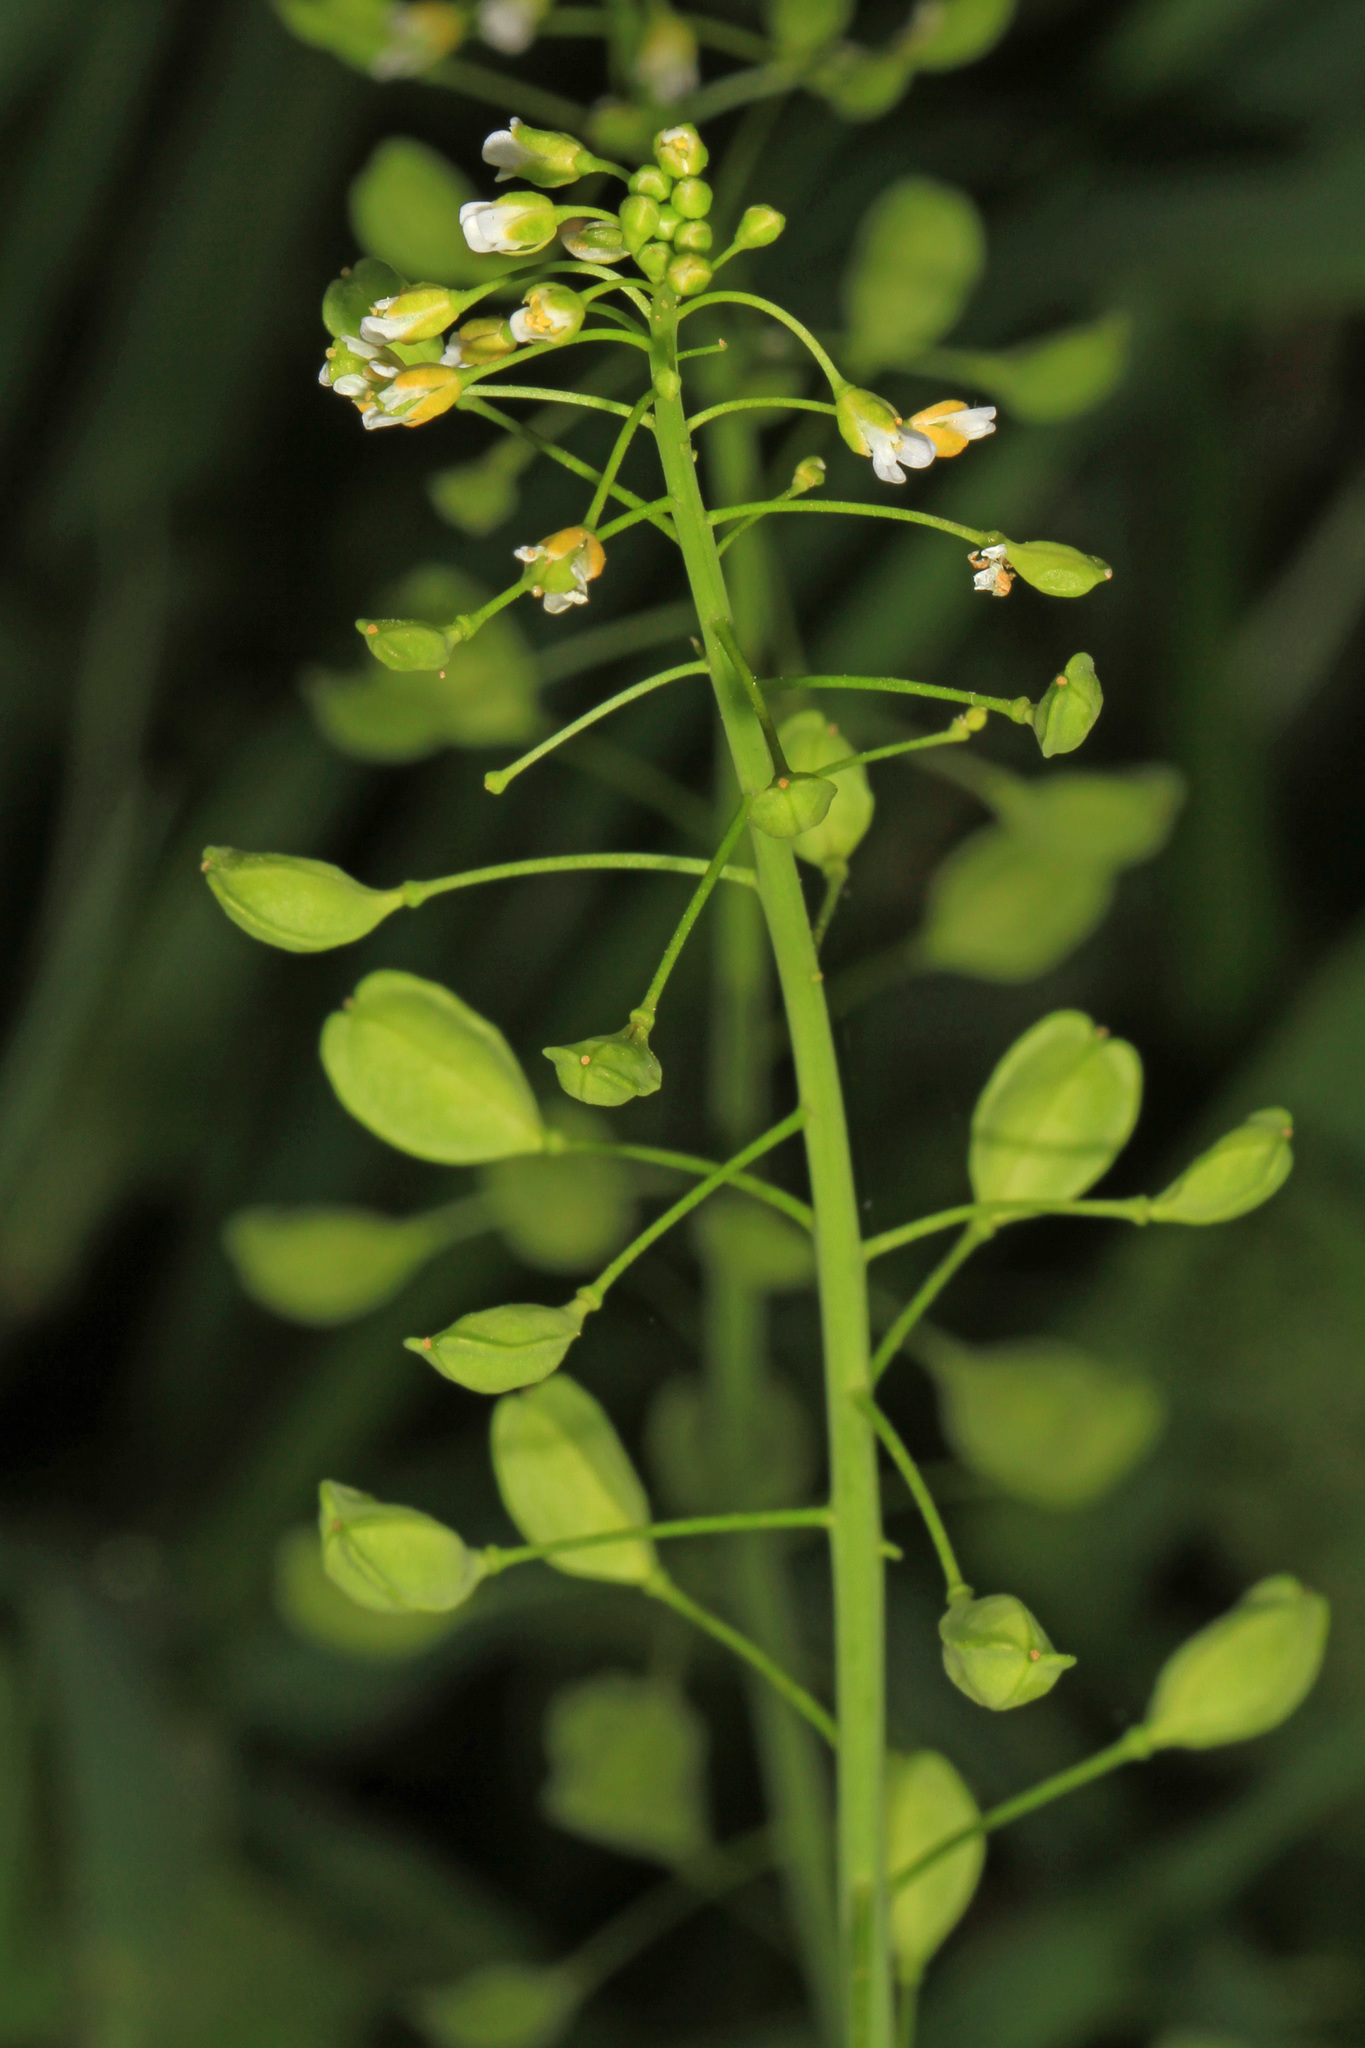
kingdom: Plantae
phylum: Tracheophyta
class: Magnoliopsida
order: Brassicales
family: Brassicaceae
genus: Mummenhoffia
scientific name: Mummenhoffia alliacea
